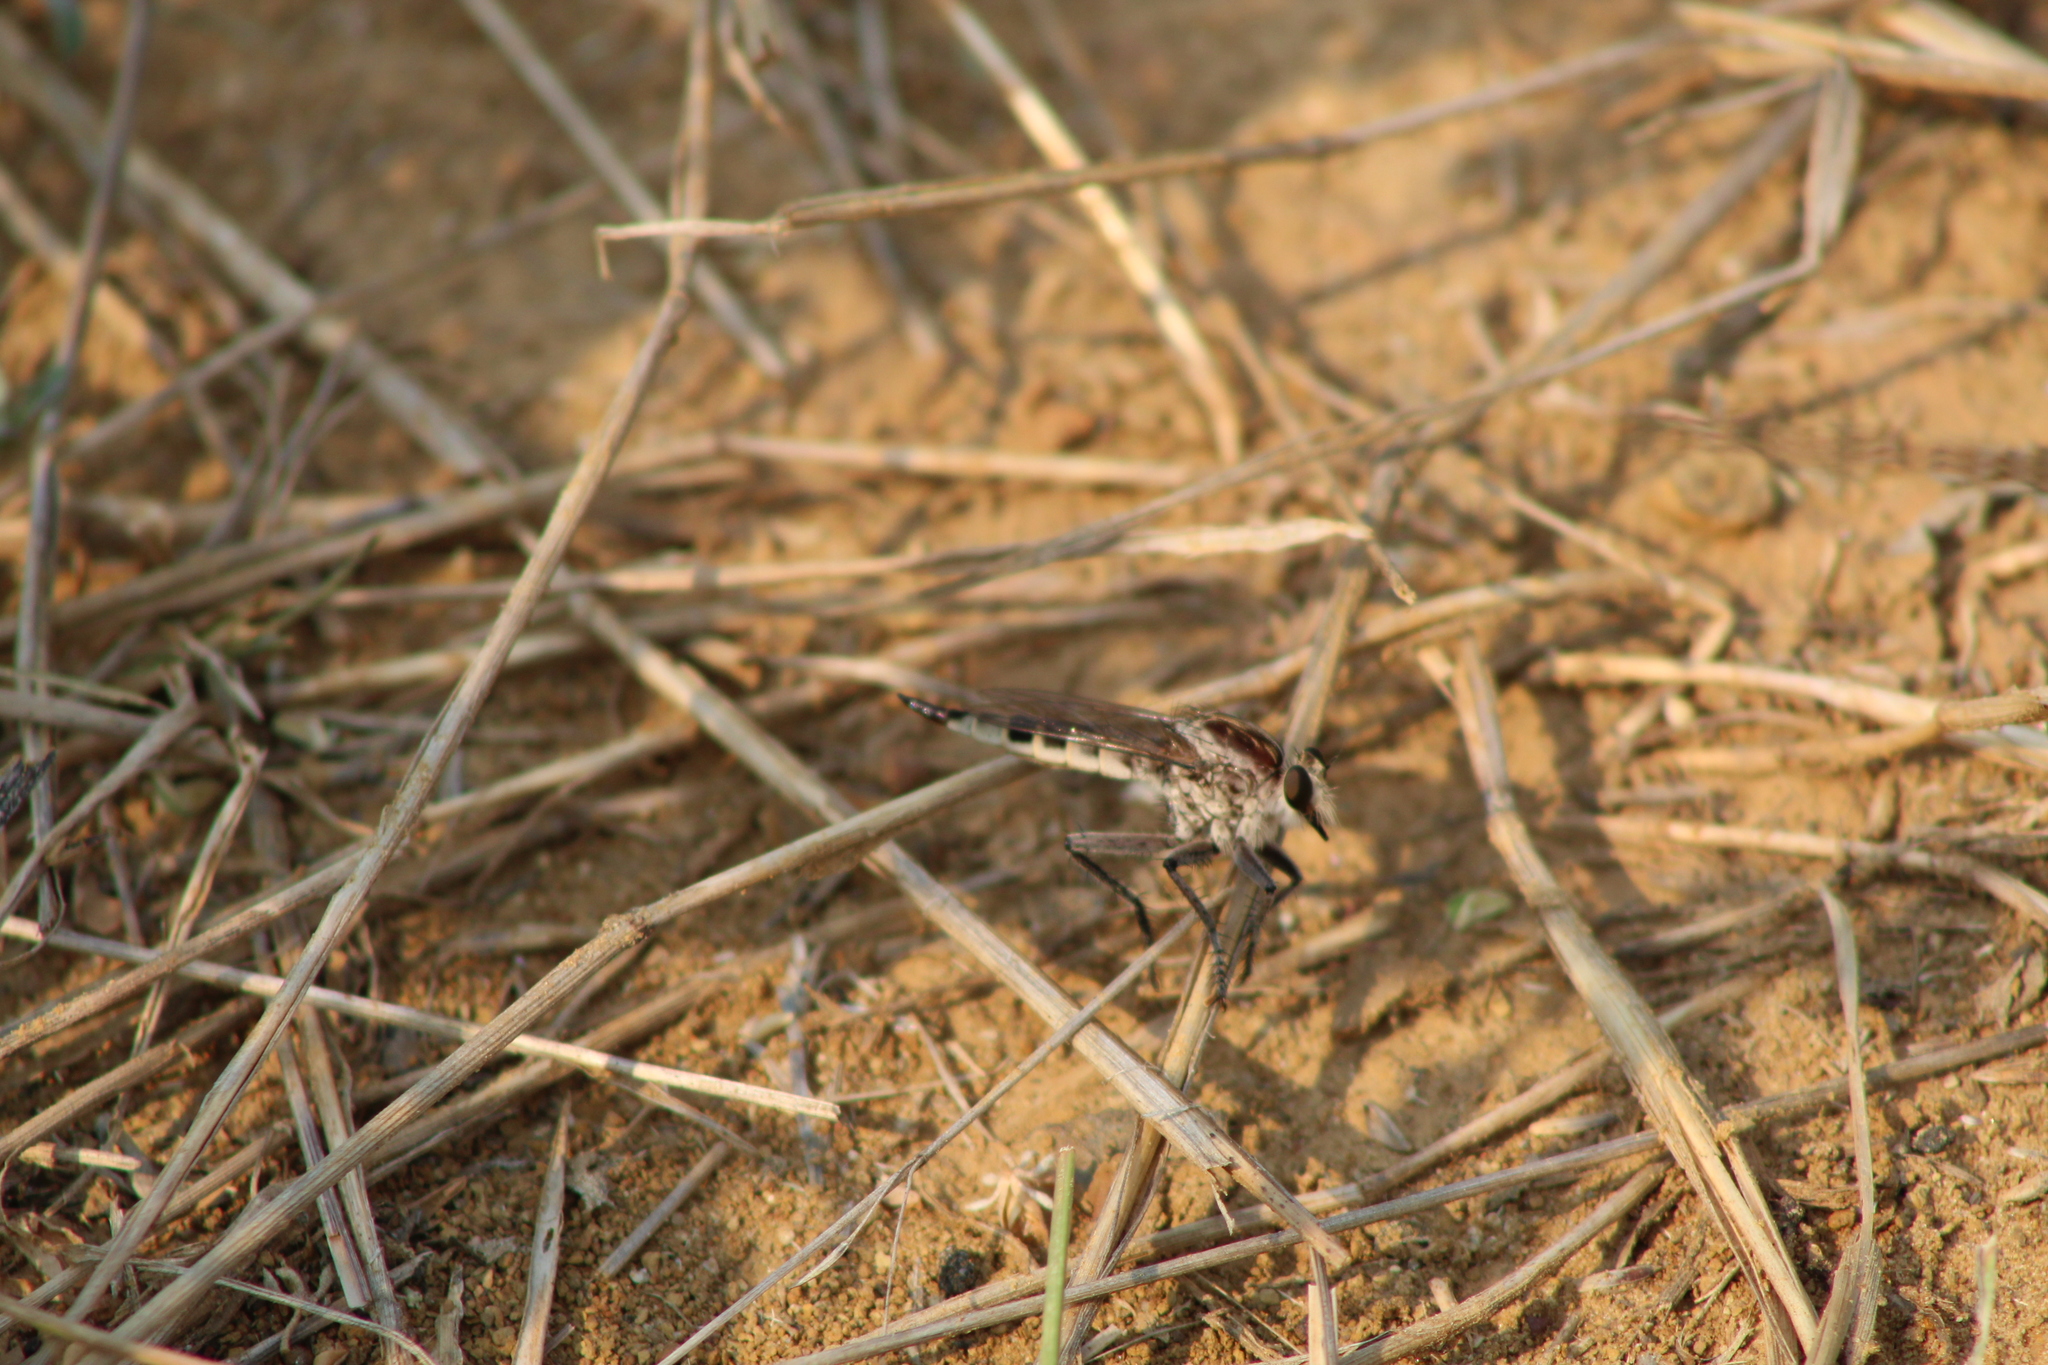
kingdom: Animalia
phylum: Arthropoda
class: Insecta
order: Diptera
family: Asilidae
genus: Triorla
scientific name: Triorla interrupta
